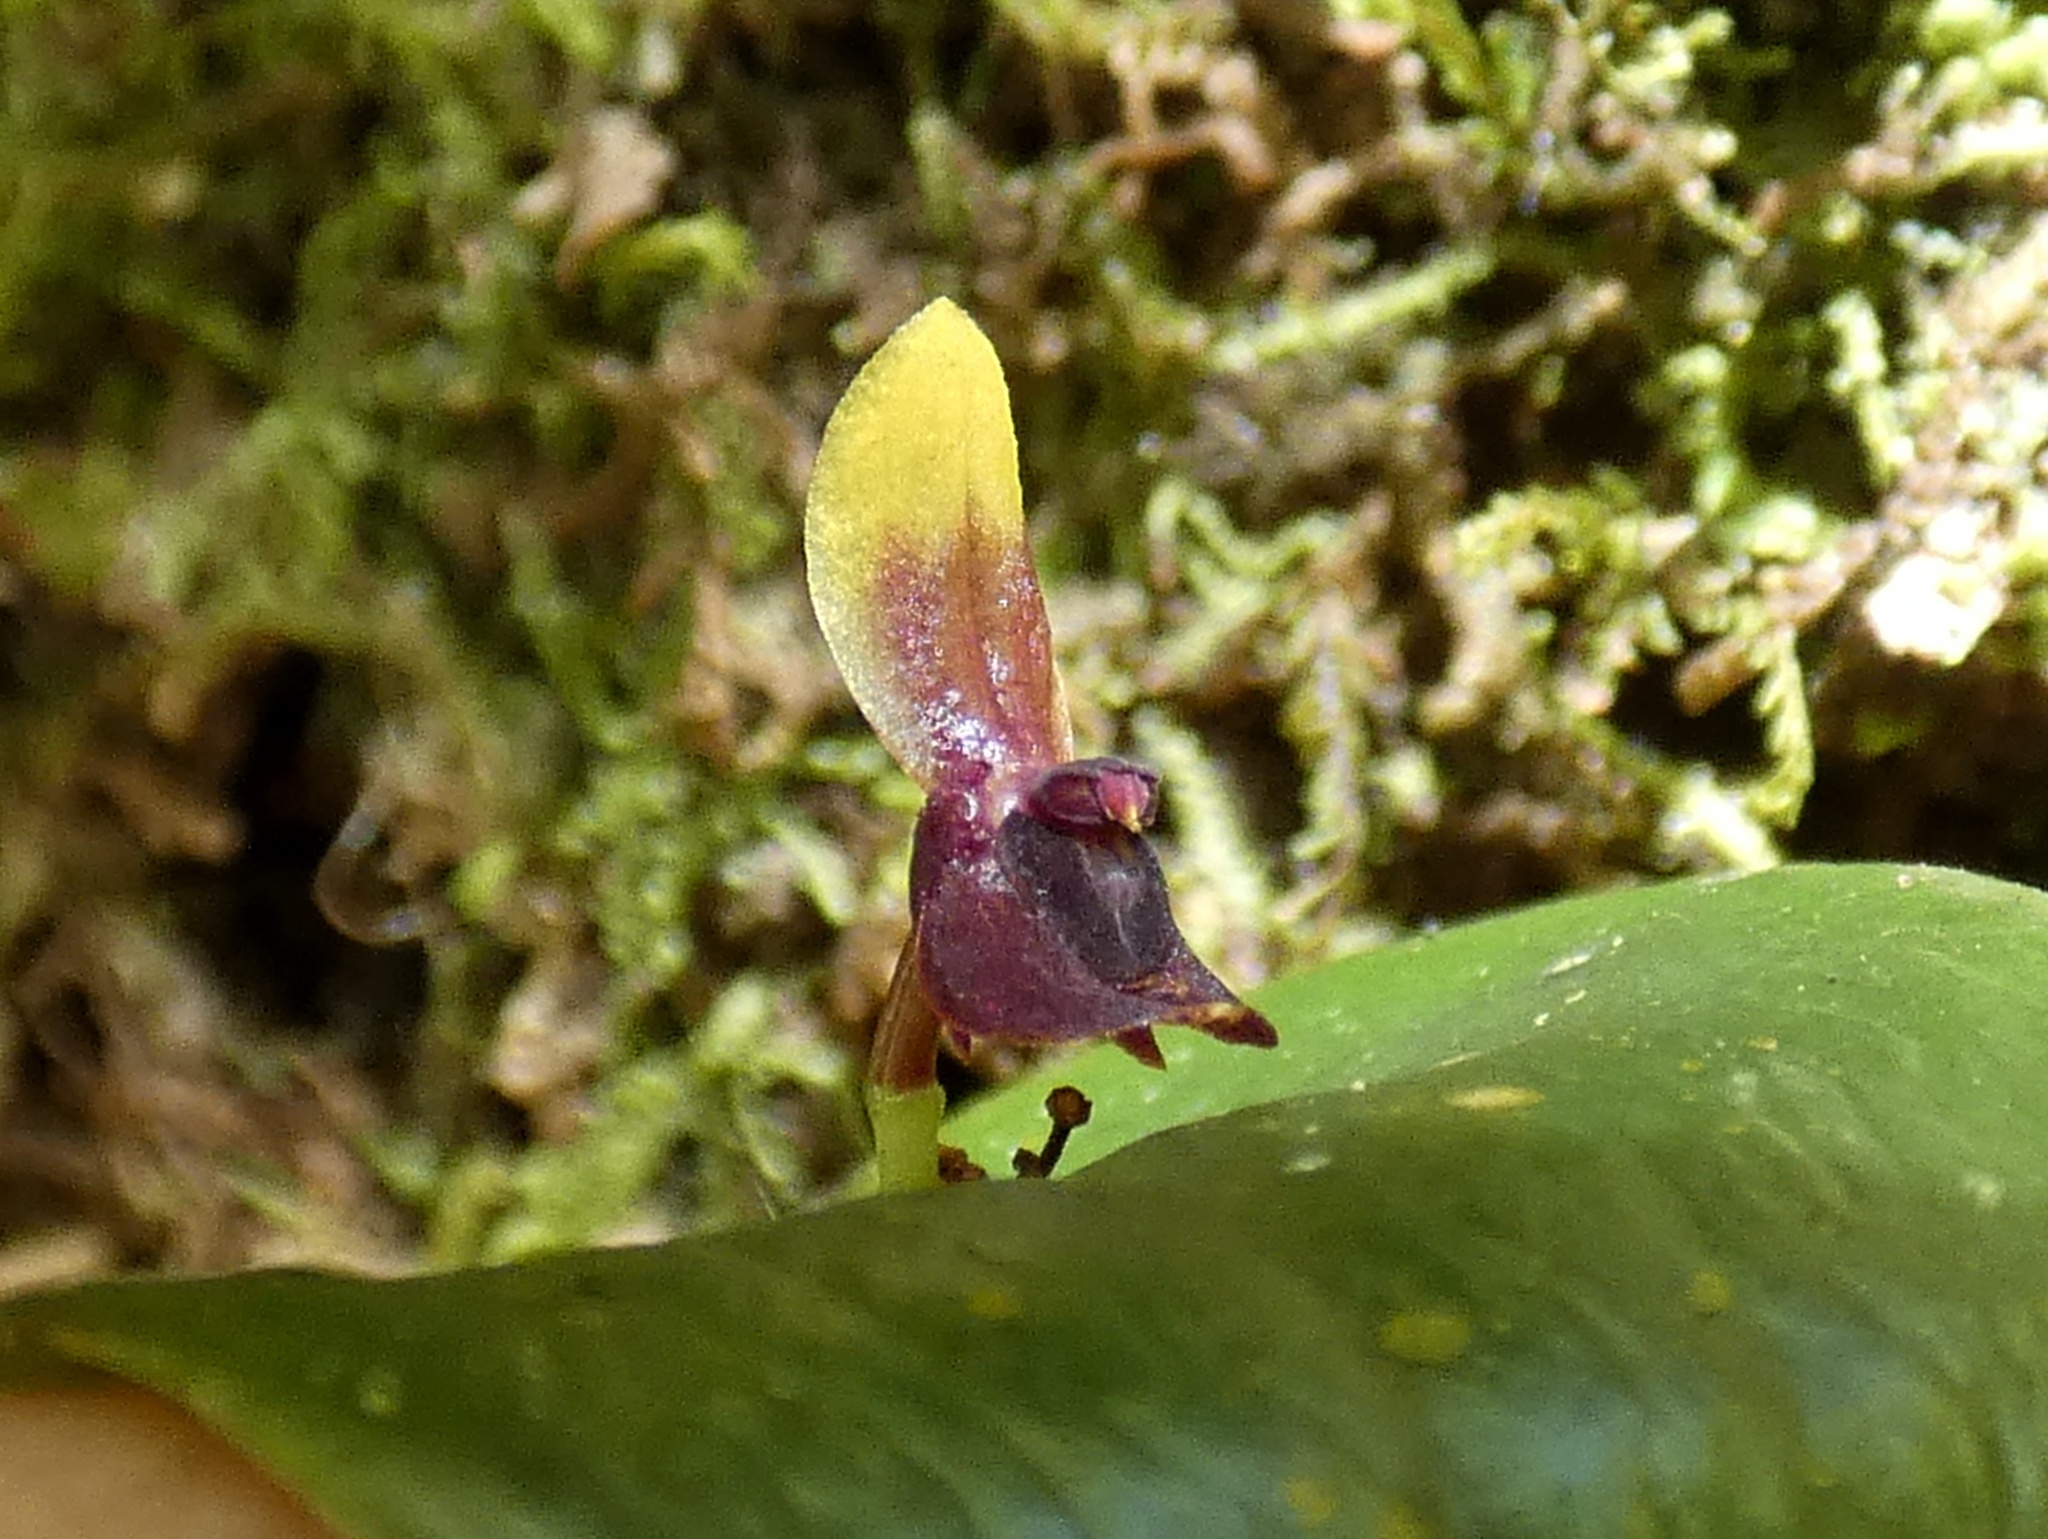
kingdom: Plantae
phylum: Tracheophyta
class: Liliopsida
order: Asparagales
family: Orchidaceae
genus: Pleurothallis
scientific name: Pleurothallis rhodoglossa
